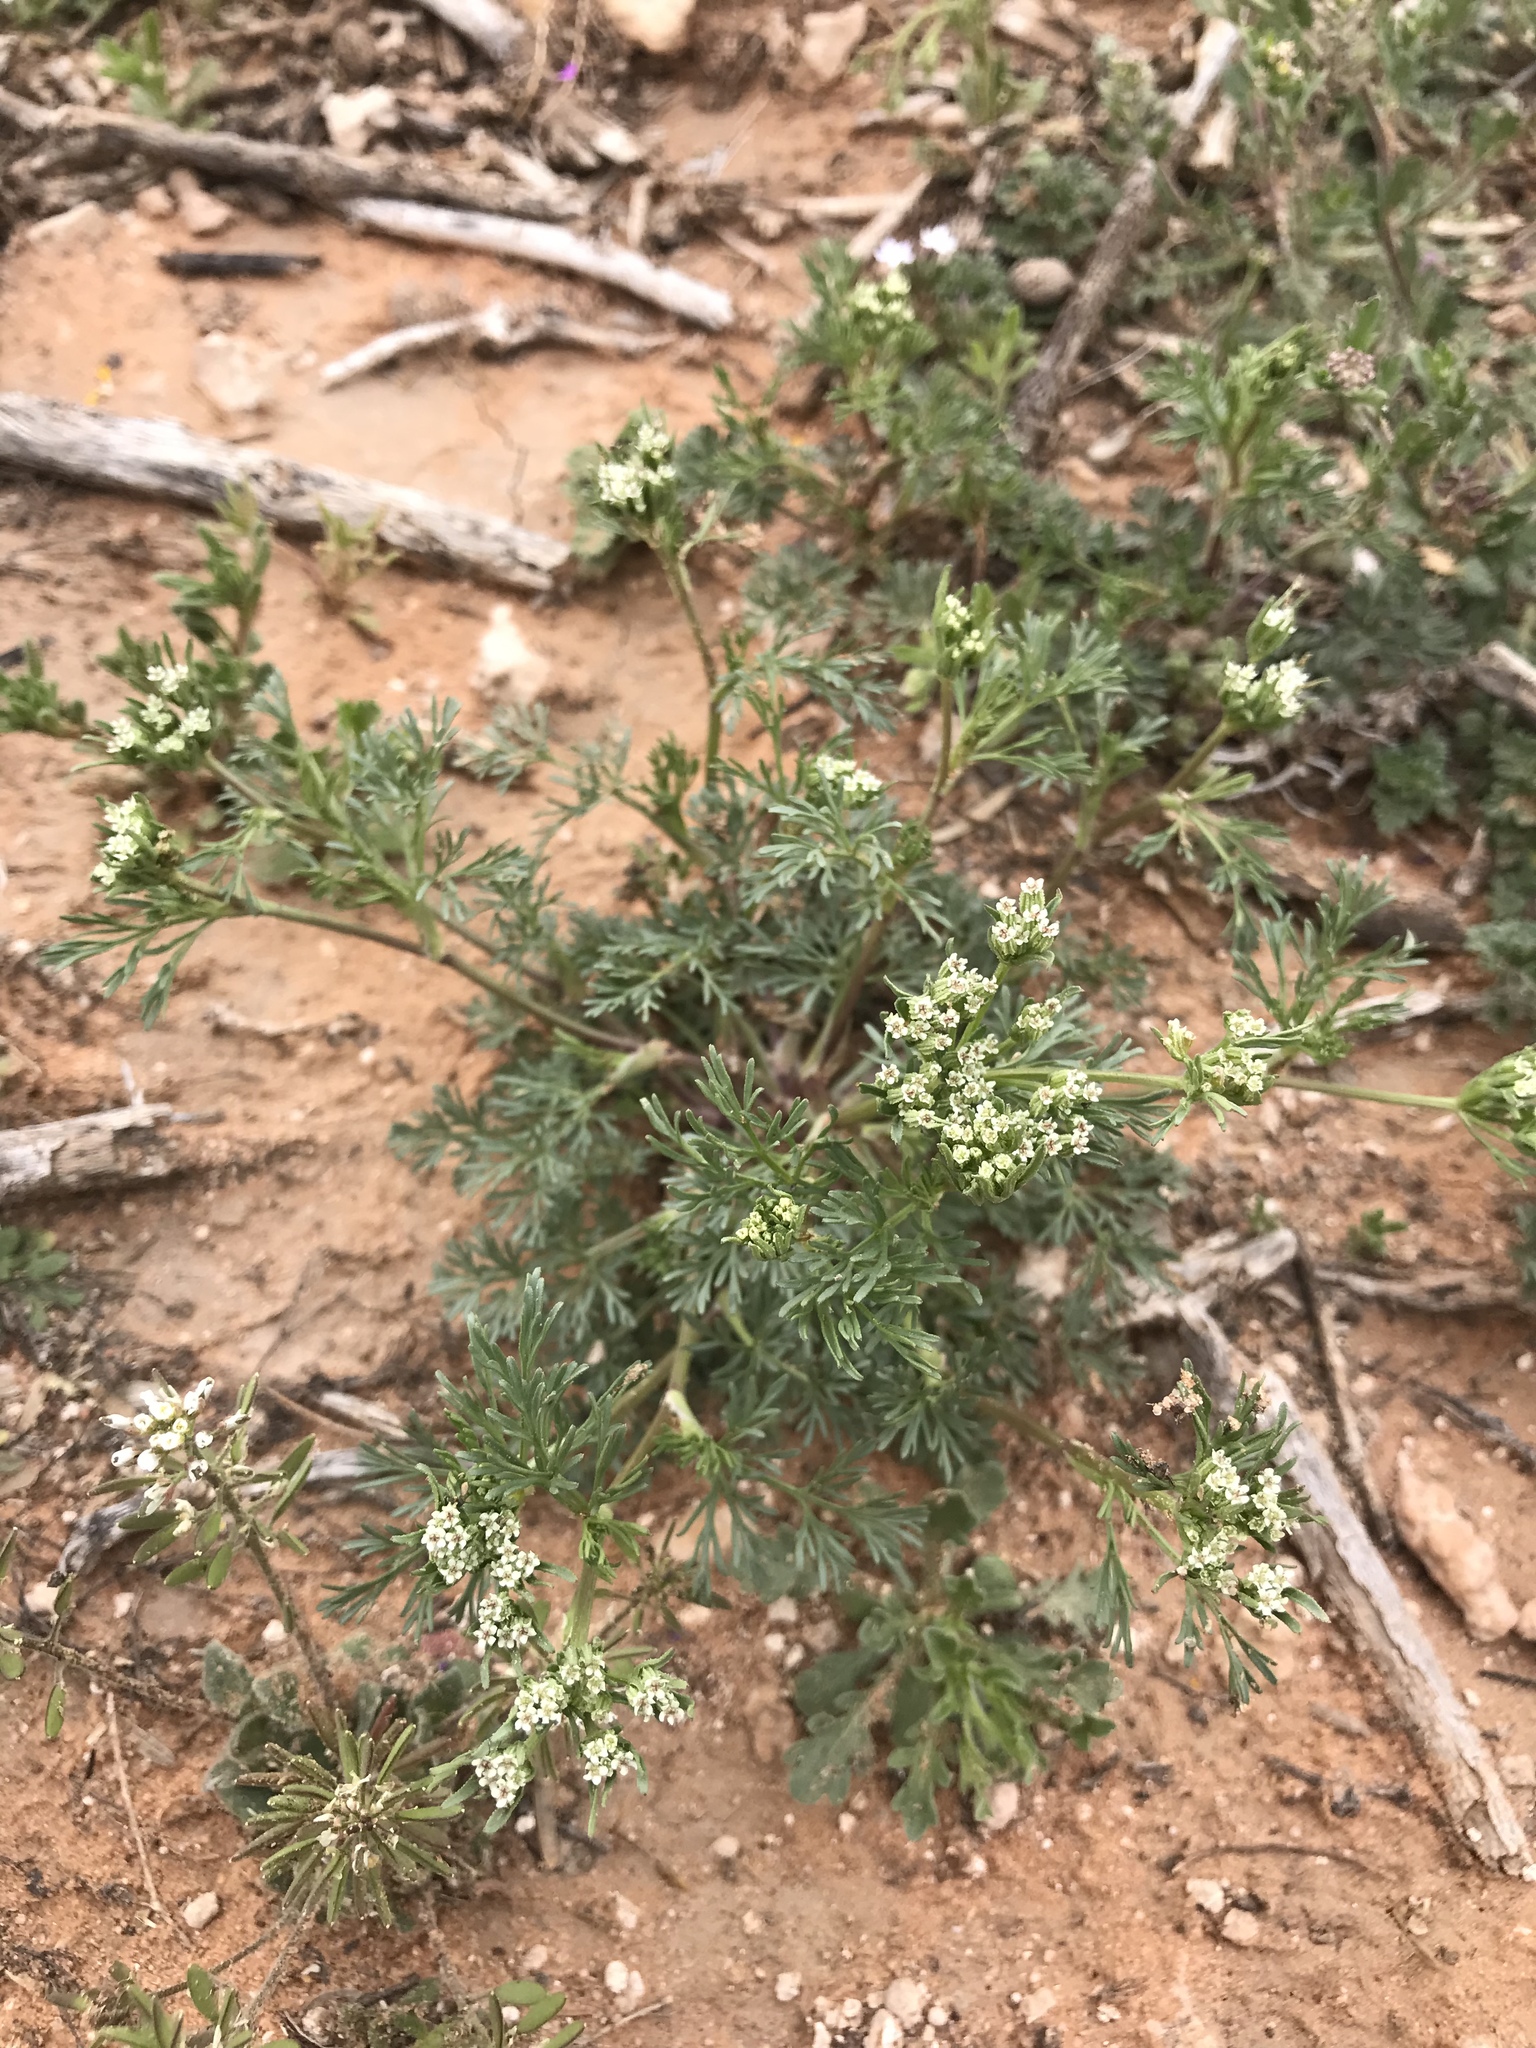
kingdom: Plantae
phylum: Tracheophyta
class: Magnoliopsida
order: Apiales
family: Apiaceae
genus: Ammoselinum
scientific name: Ammoselinum popei
